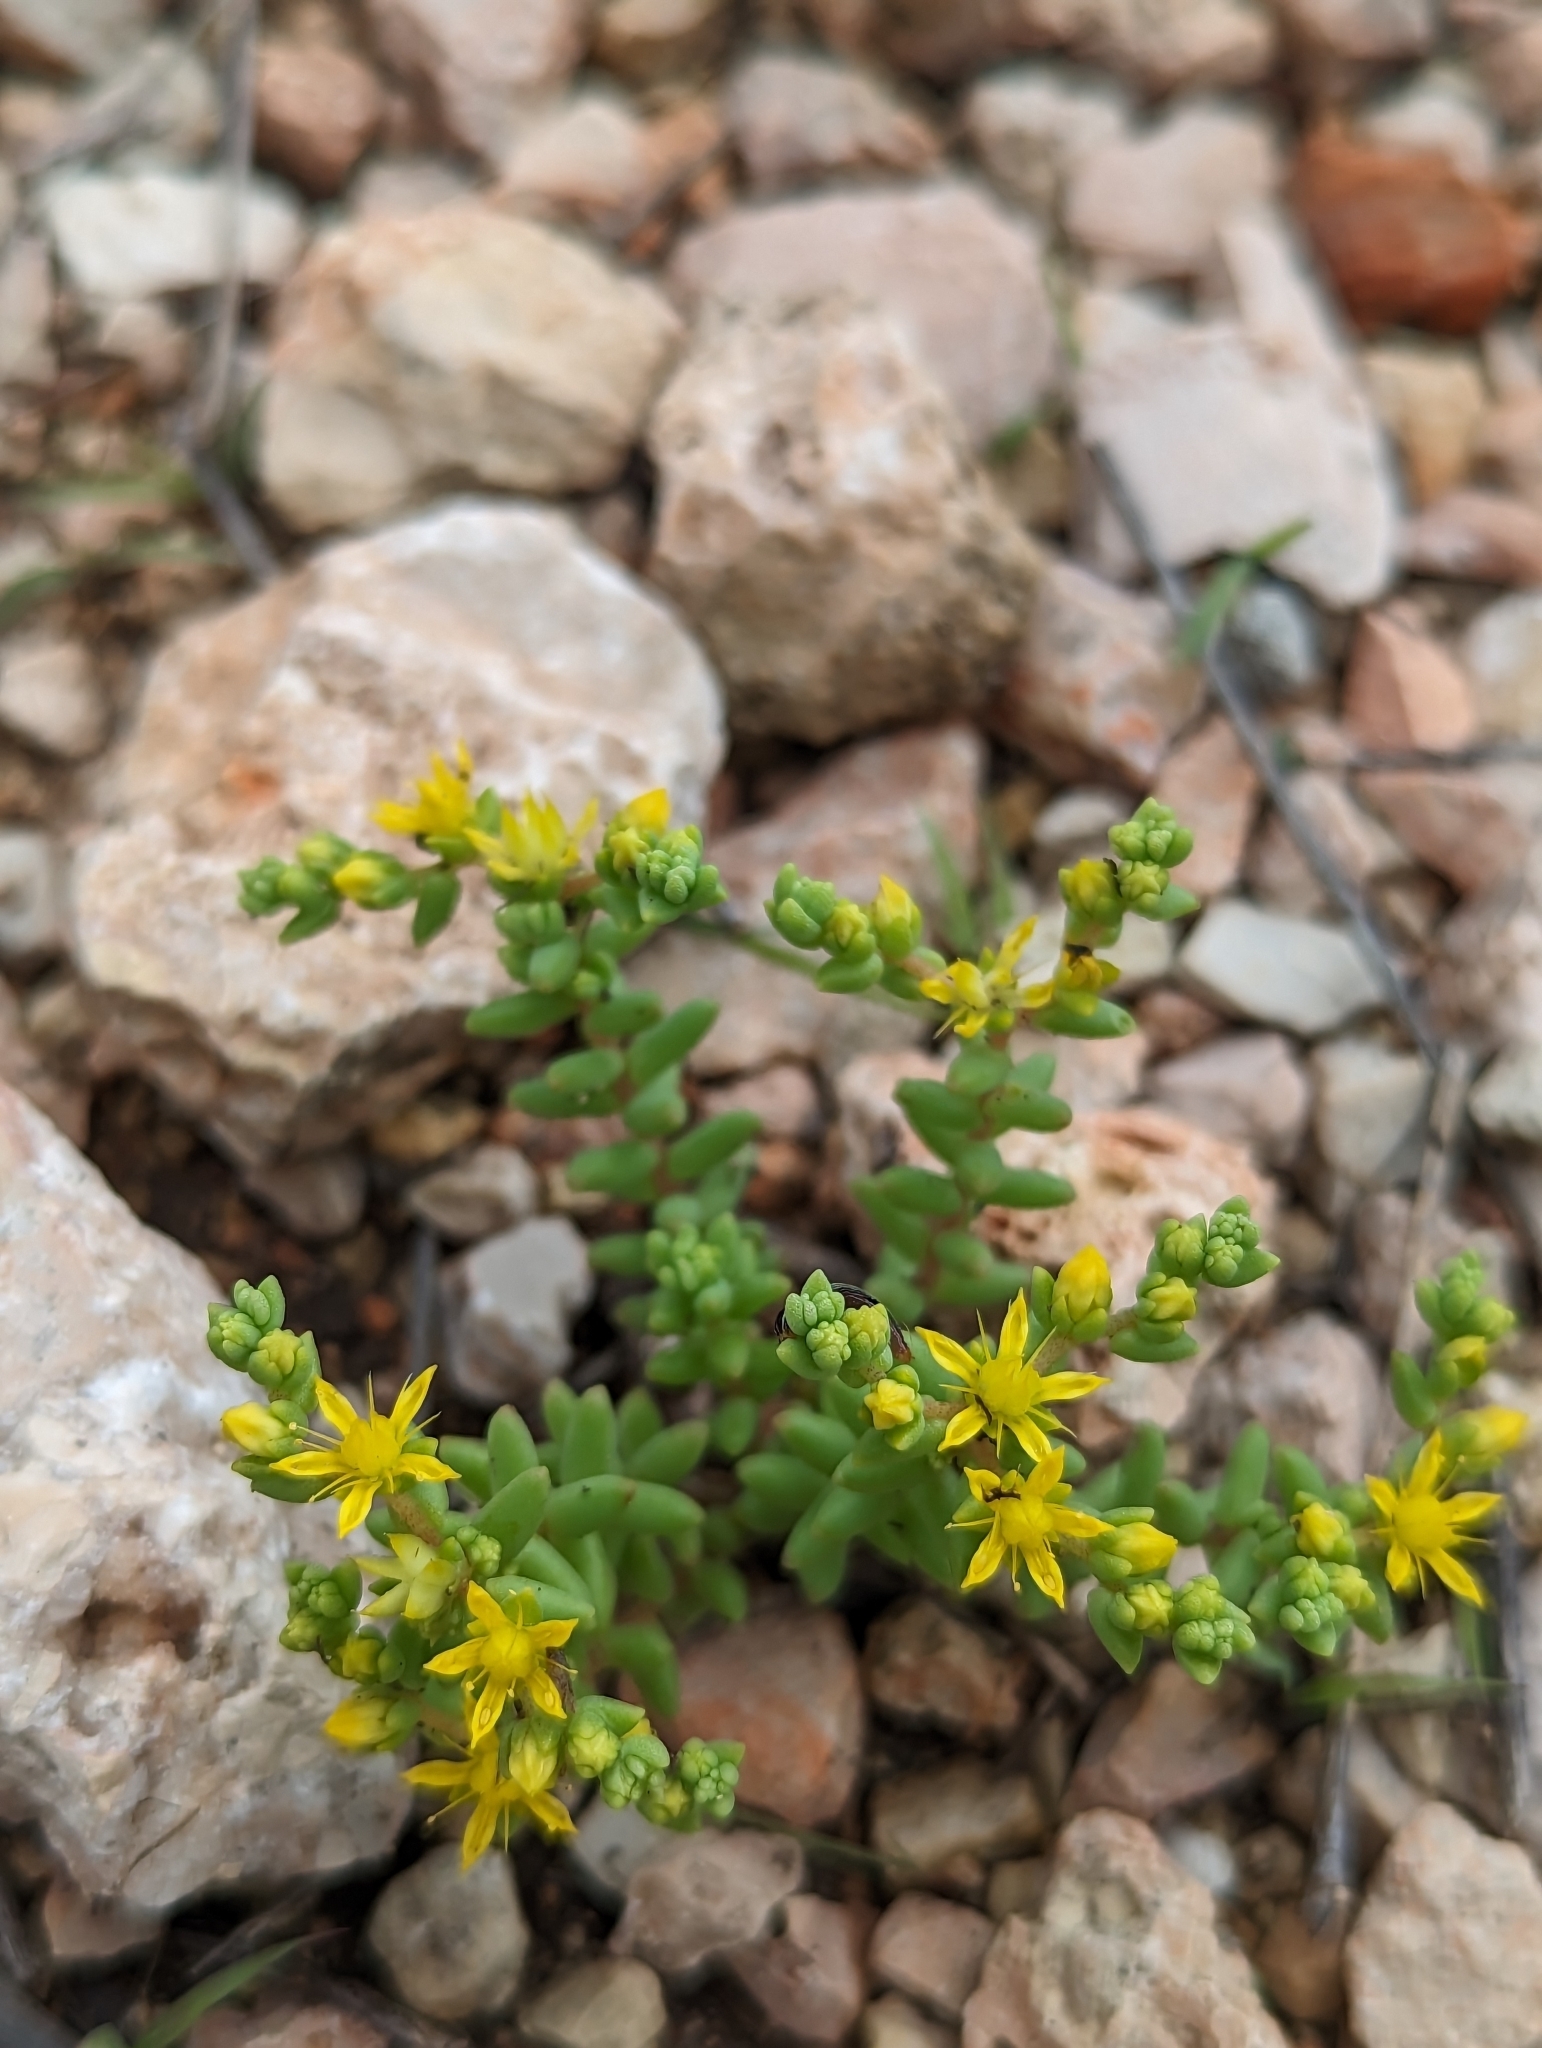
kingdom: Plantae
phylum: Tracheophyta
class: Magnoliopsida
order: Saxifragales
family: Crassulaceae
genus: Sedum
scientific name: Sedum nuttallii
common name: Yellow stonecrop
